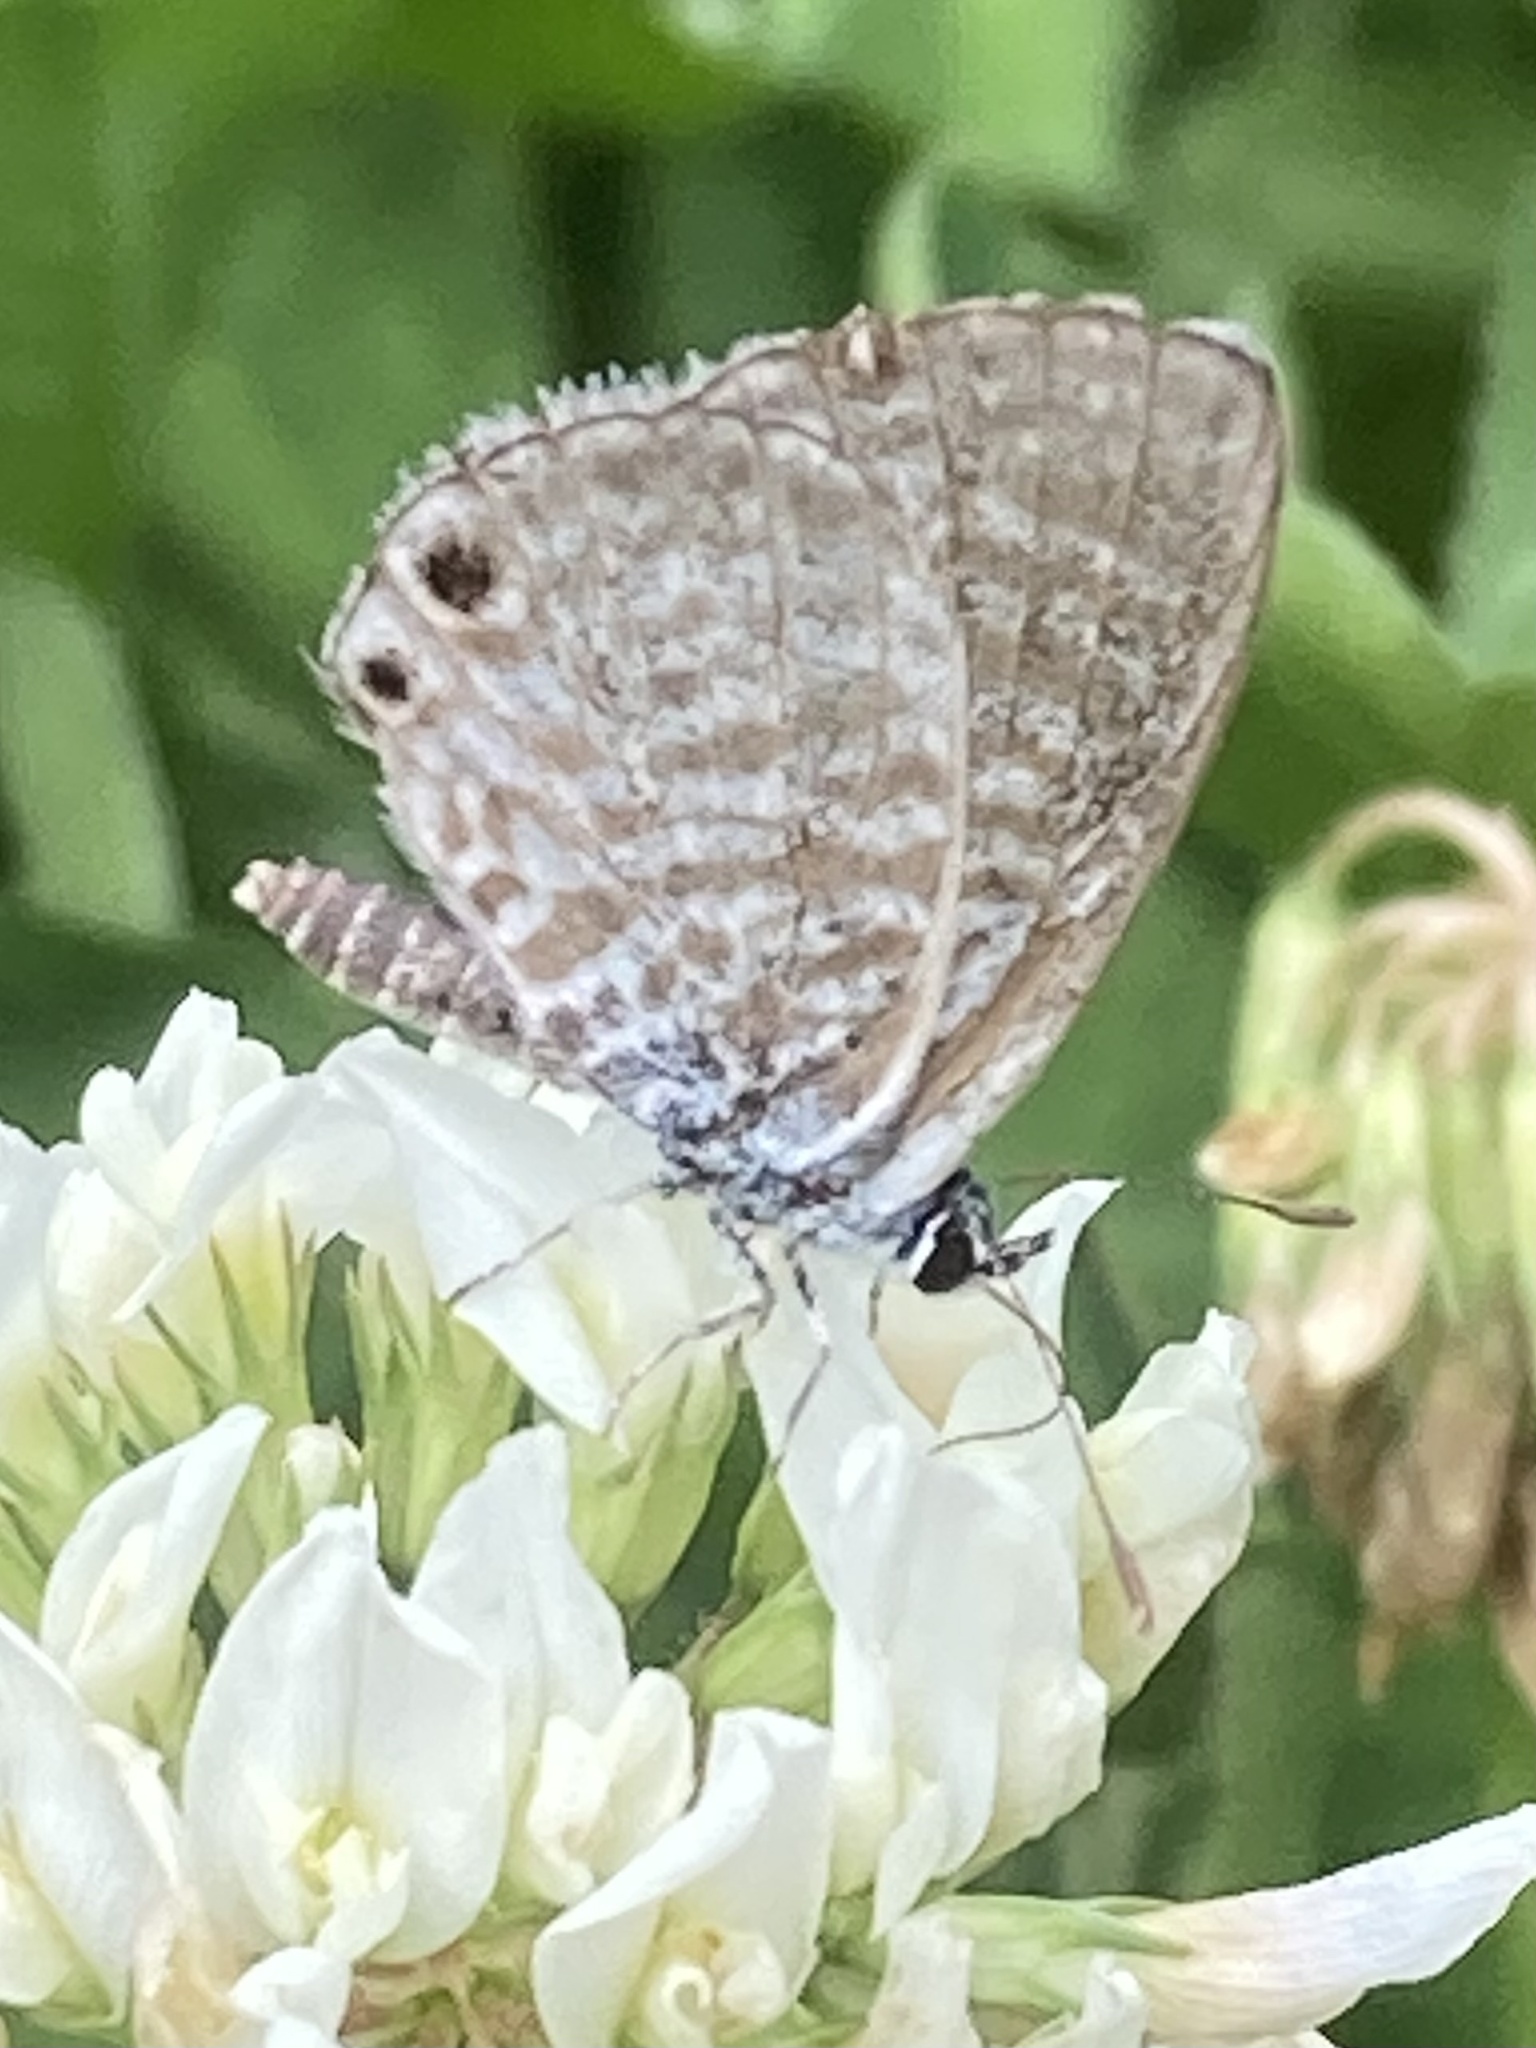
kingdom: Animalia
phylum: Arthropoda
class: Insecta
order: Lepidoptera
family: Lycaenidae
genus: Leptotes
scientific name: Leptotes marina
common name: Marine blue
